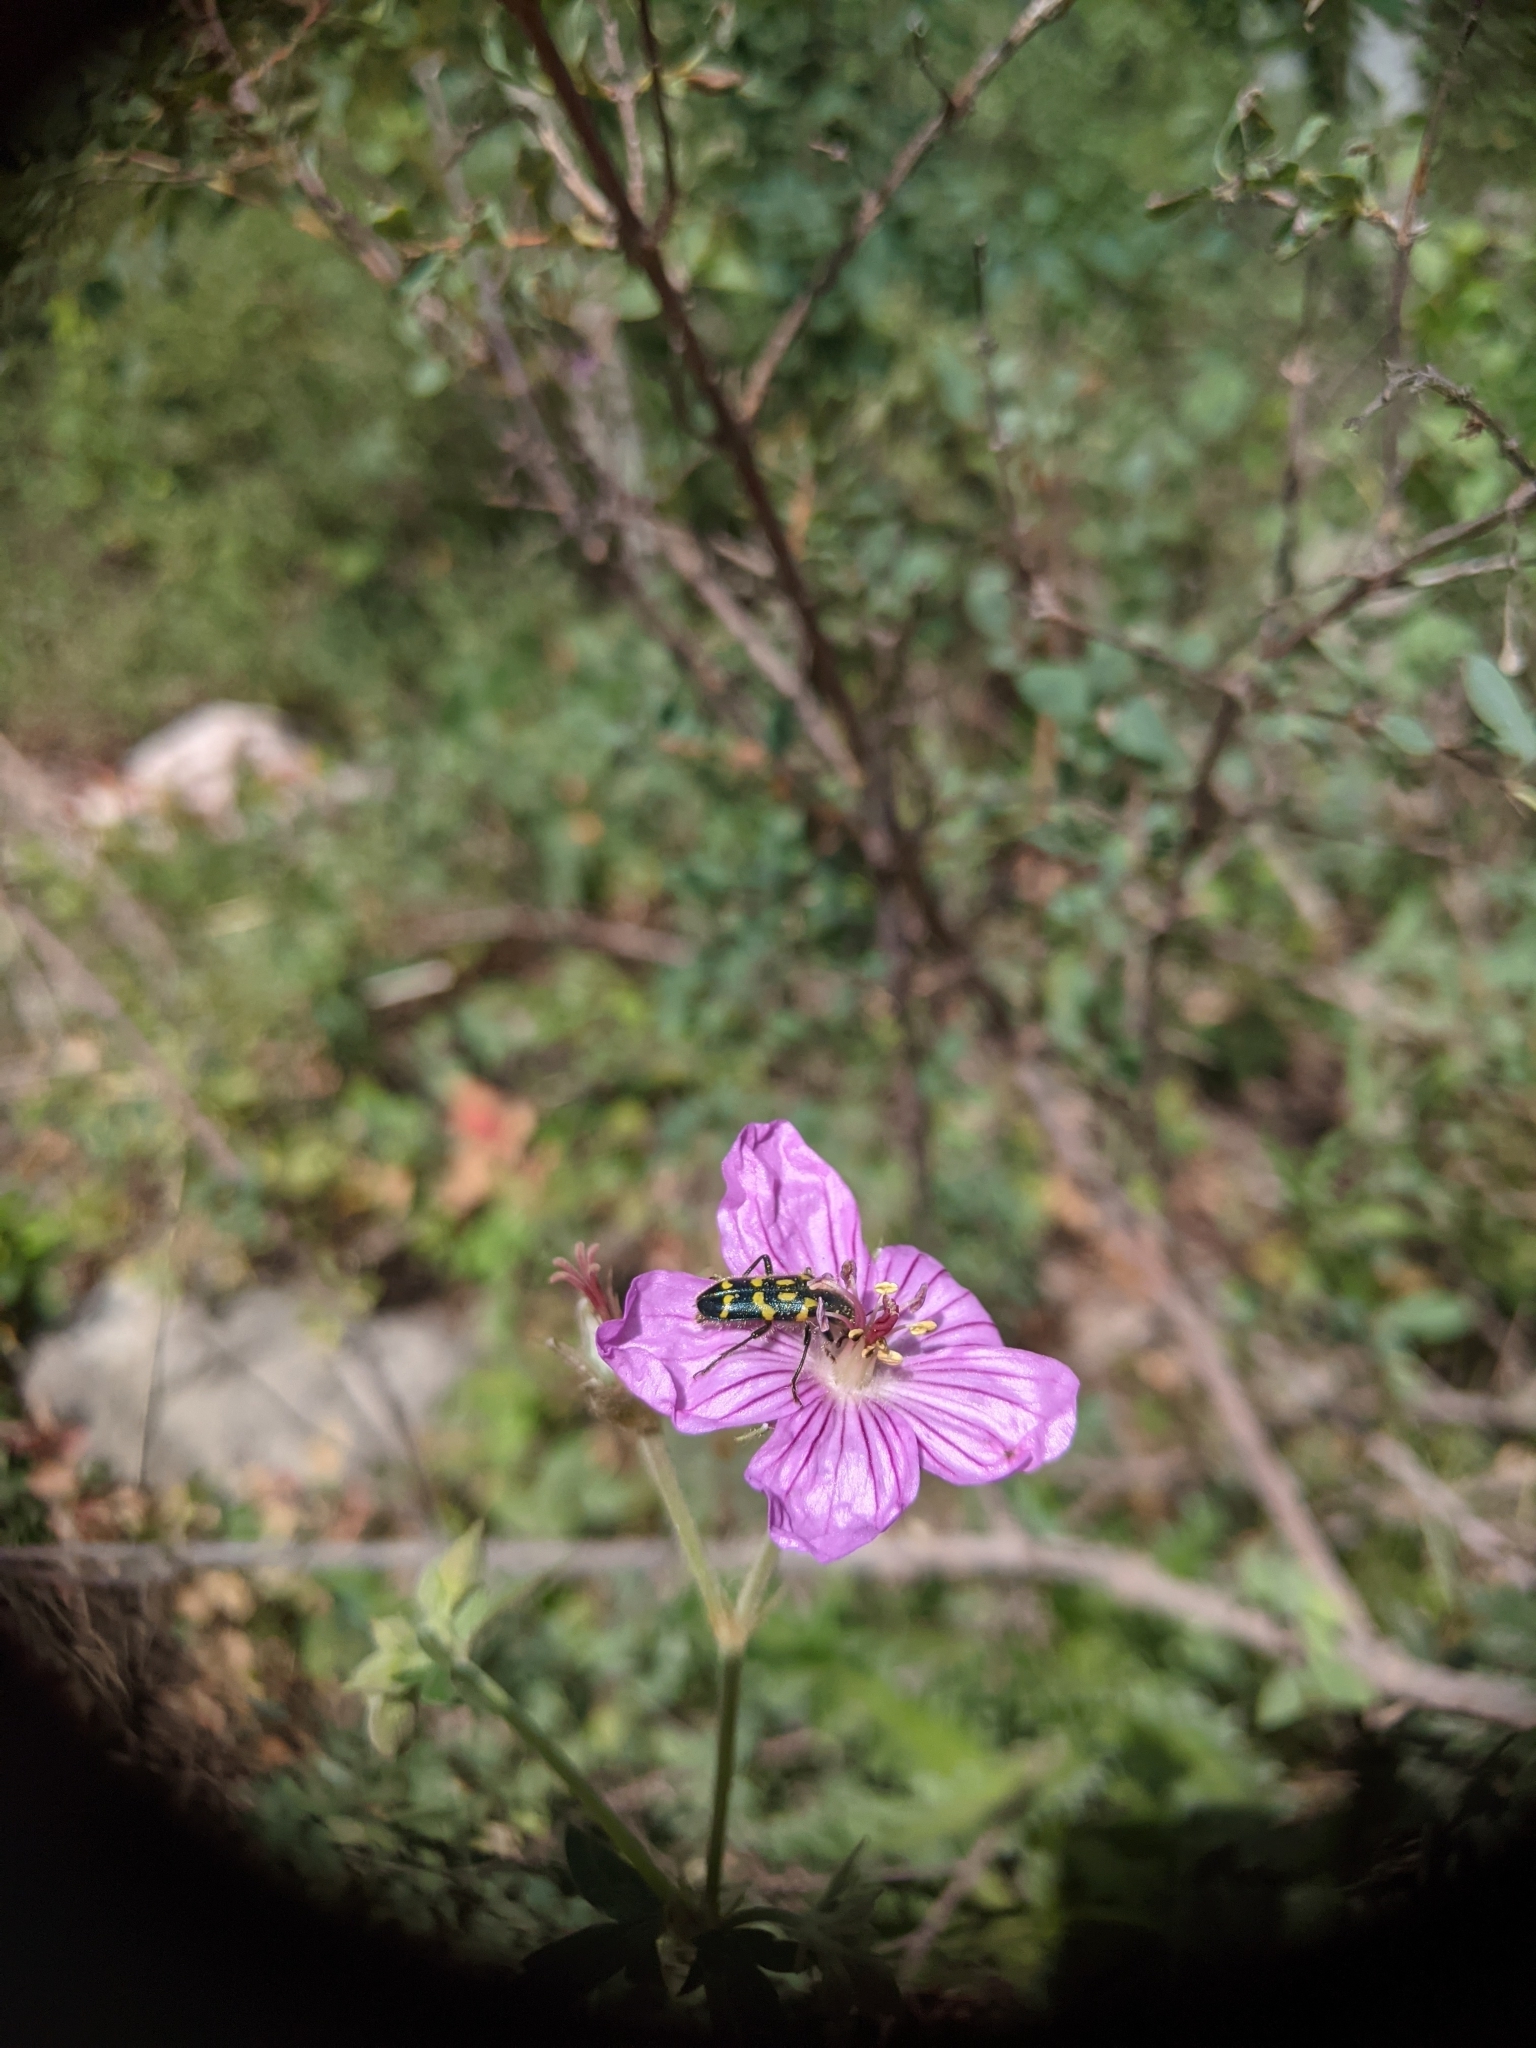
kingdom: Animalia
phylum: Arthropoda
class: Insecta
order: Coleoptera
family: Cleridae
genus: Trichodes
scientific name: Trichodes ornatus
